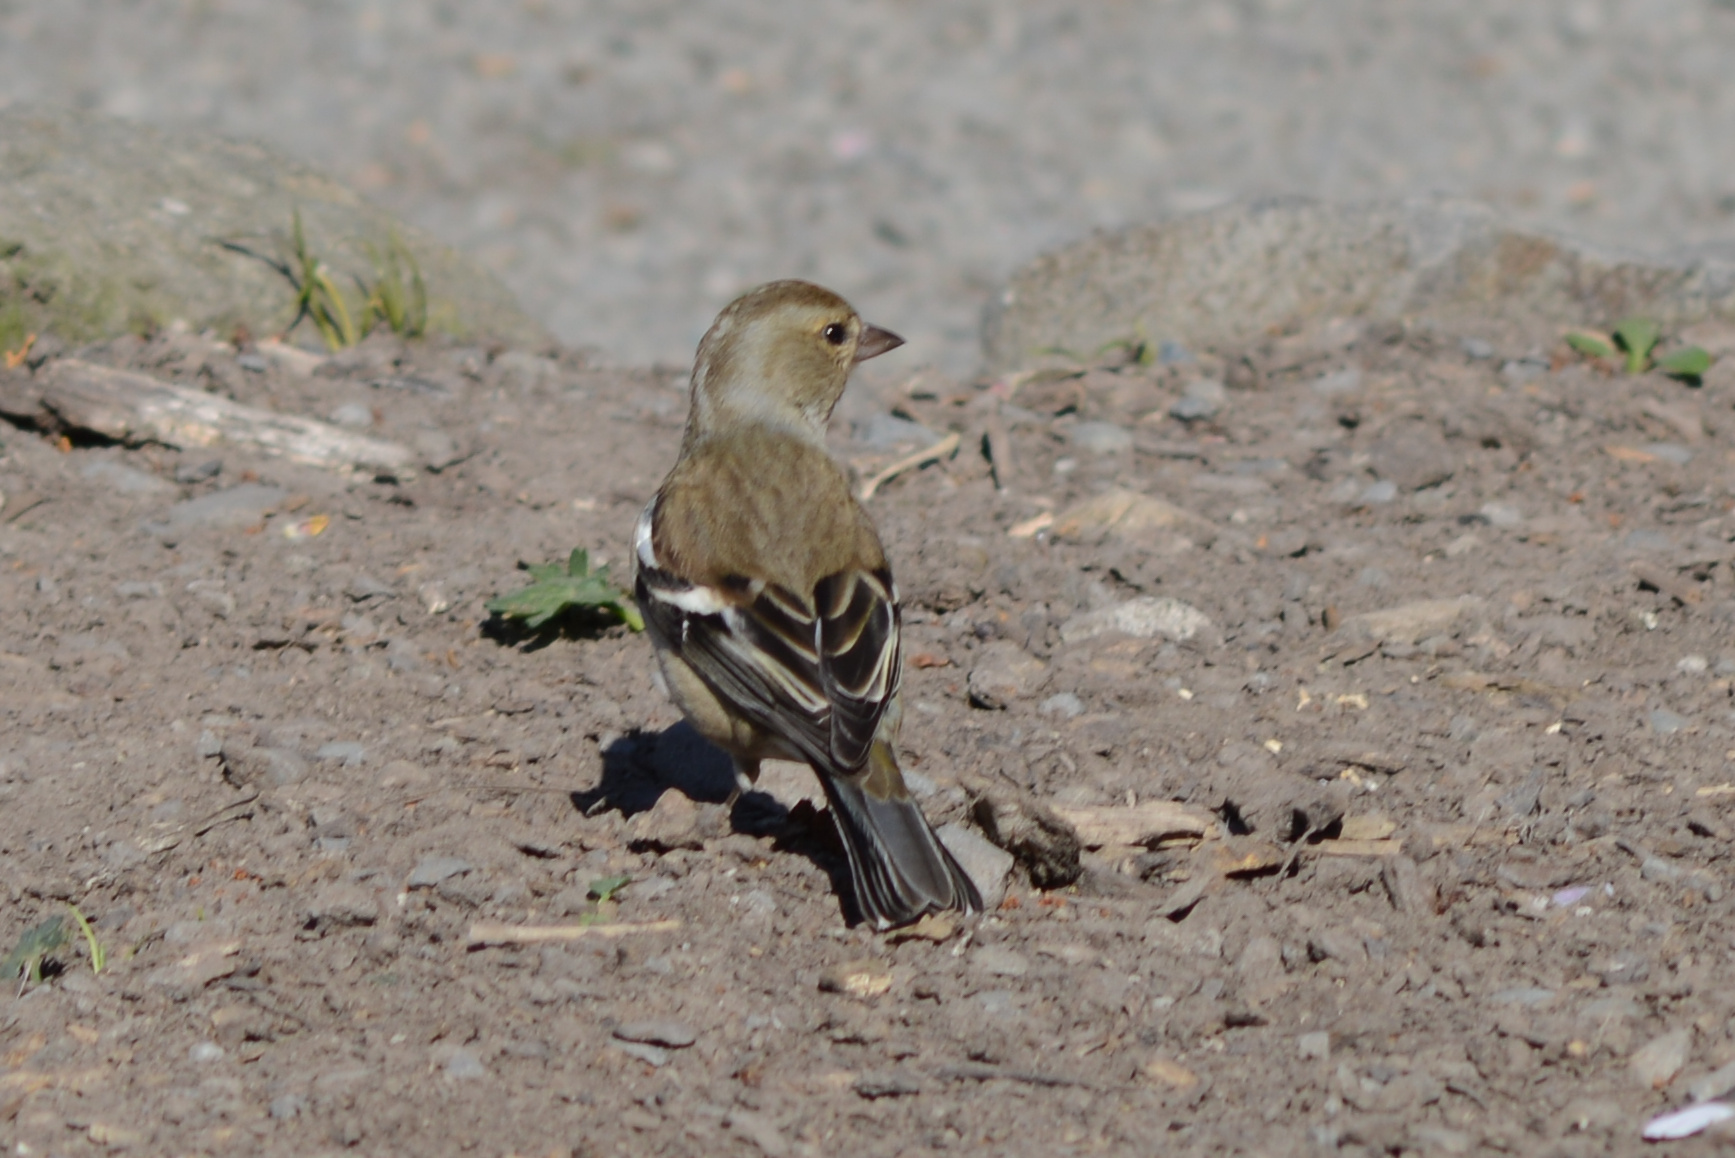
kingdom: Animalia
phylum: Chordata
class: Aves
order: Passeriformes
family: Fringillidae
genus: Fringilla
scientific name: Fringilla coelebs
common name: Common chaffinch
